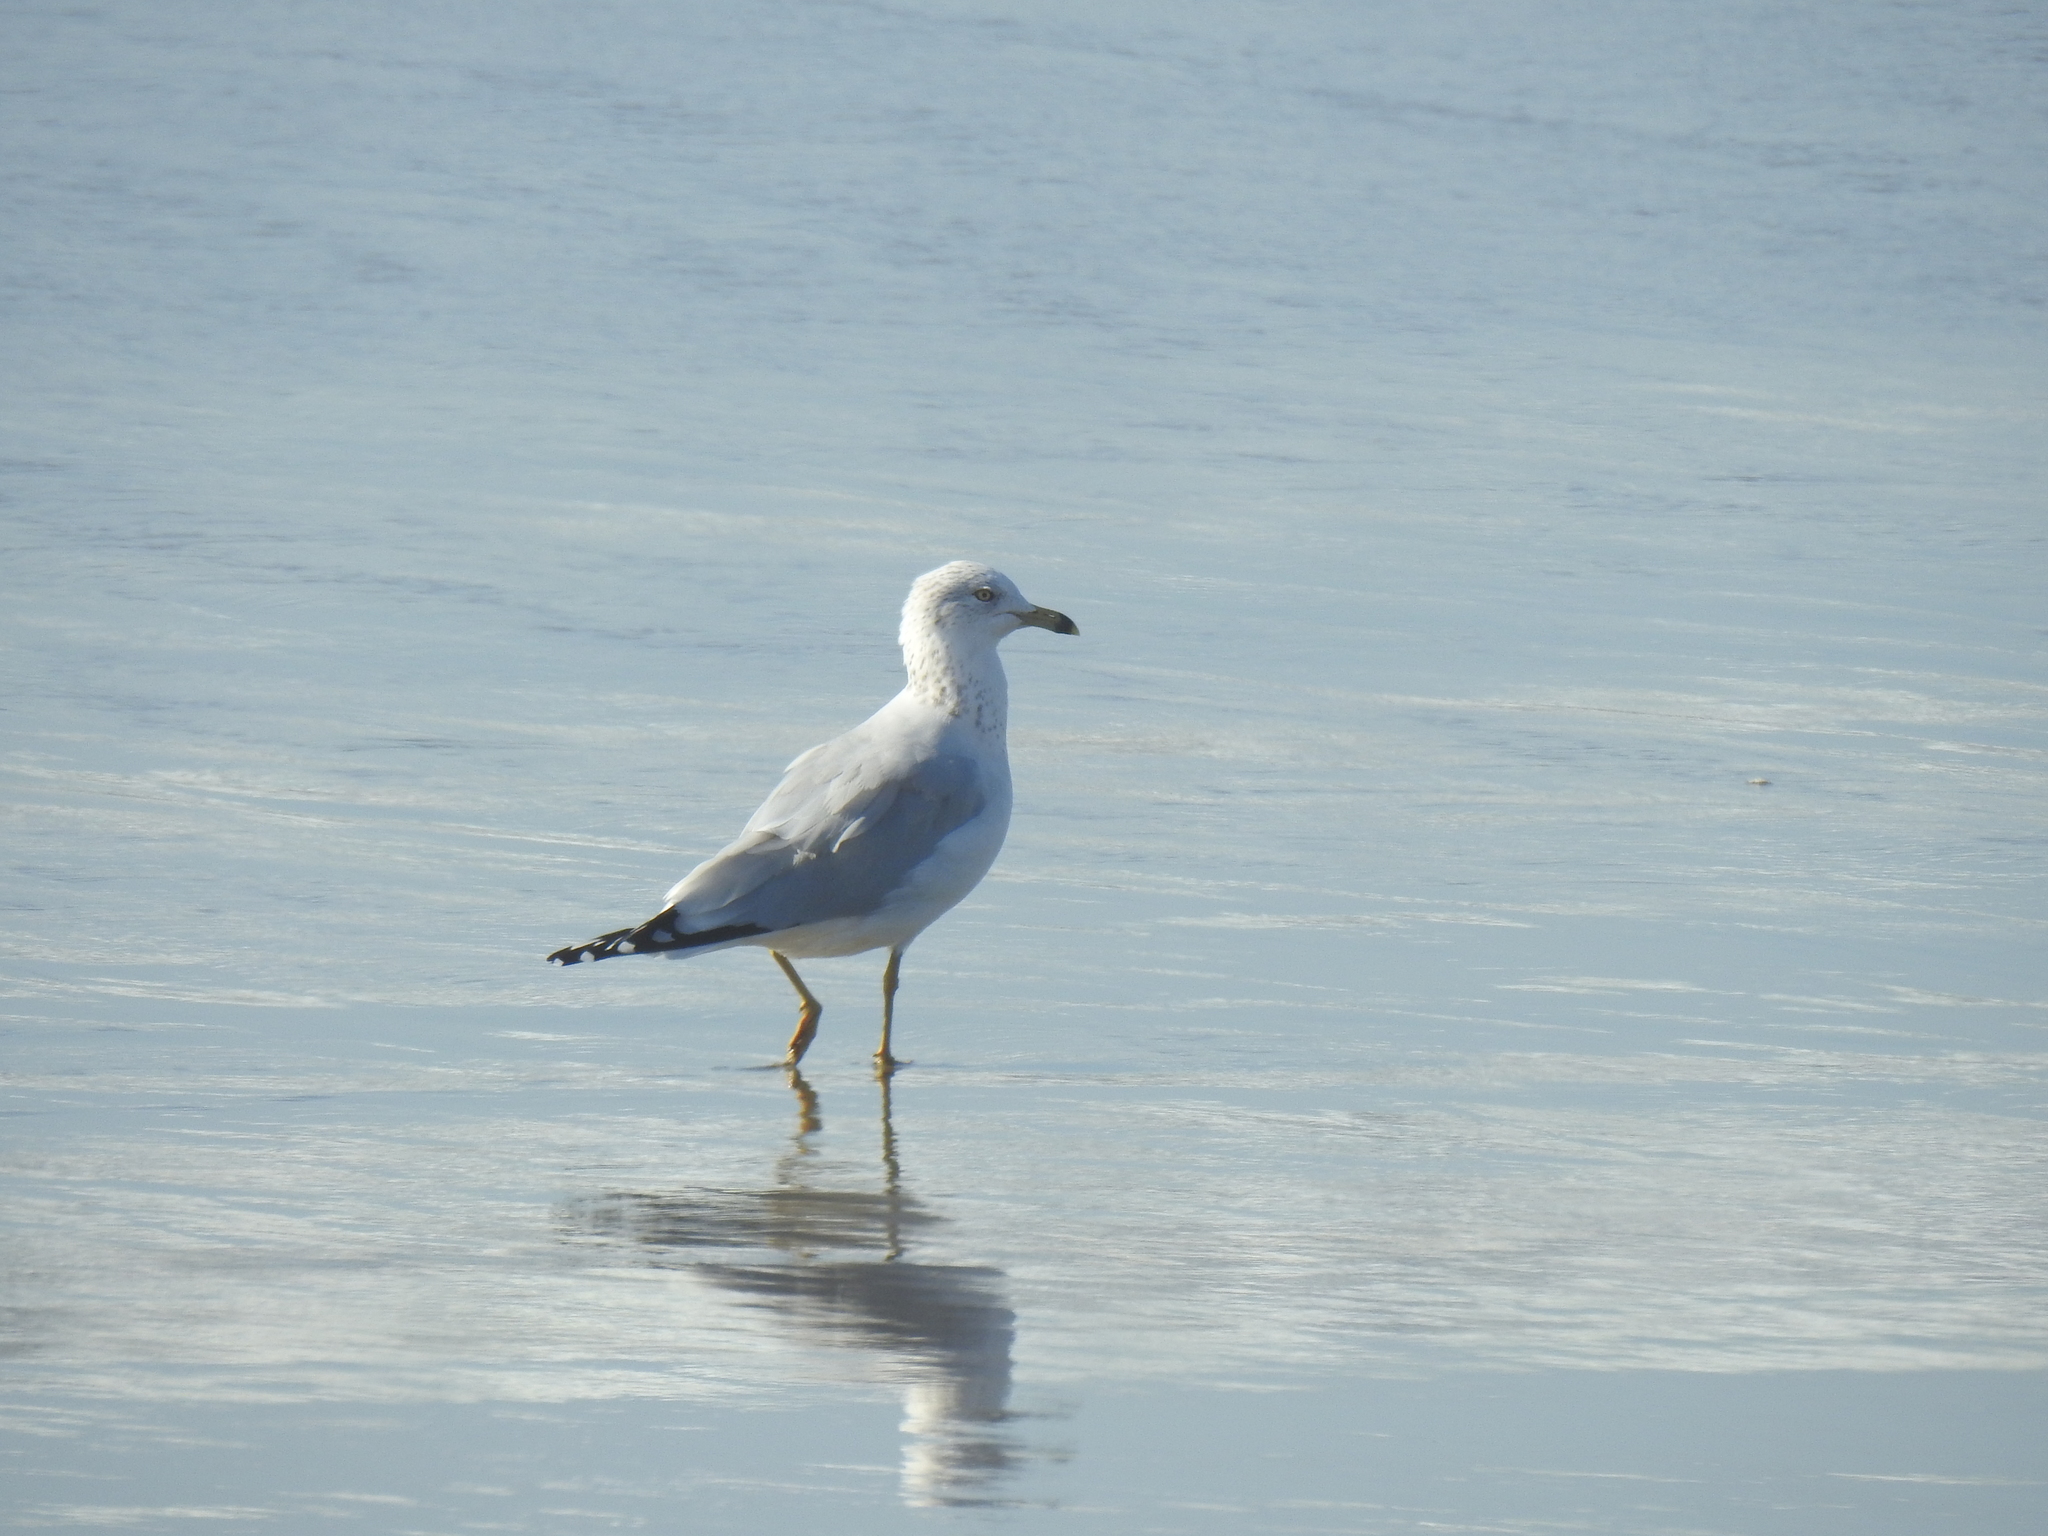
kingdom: Animalia
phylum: Chordata
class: Aves
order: Charadriiformes
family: Laridae
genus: Larus
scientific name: Larus delawarensis
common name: Ring-billed gull
